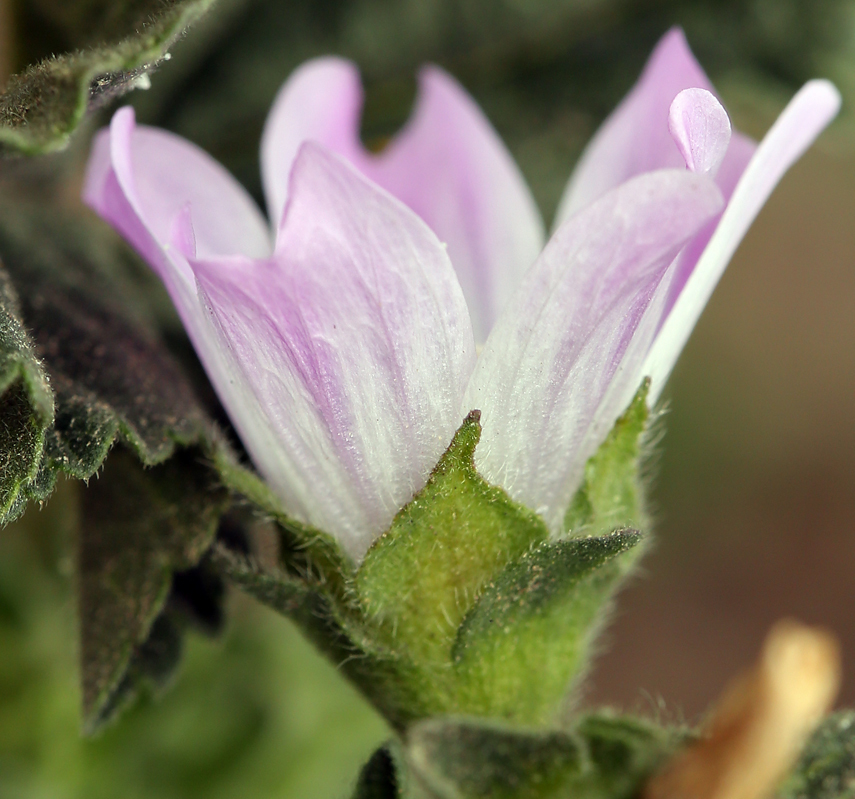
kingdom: Plantae
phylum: Tracheophyta
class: Magnoliopsida
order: Malvales
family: Malvaceae
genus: Malva
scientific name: Malva multiflora
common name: Cheeseweed
